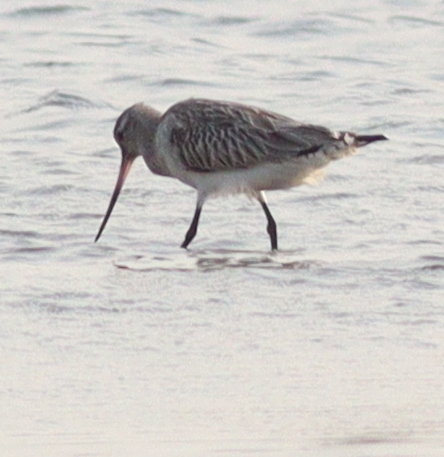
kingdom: Animalia
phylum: Chordata
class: Aves
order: Charadriiformes
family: Scolopacidae
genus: Limosa
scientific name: Limosa lapponica
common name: Bar-tailed godwit
